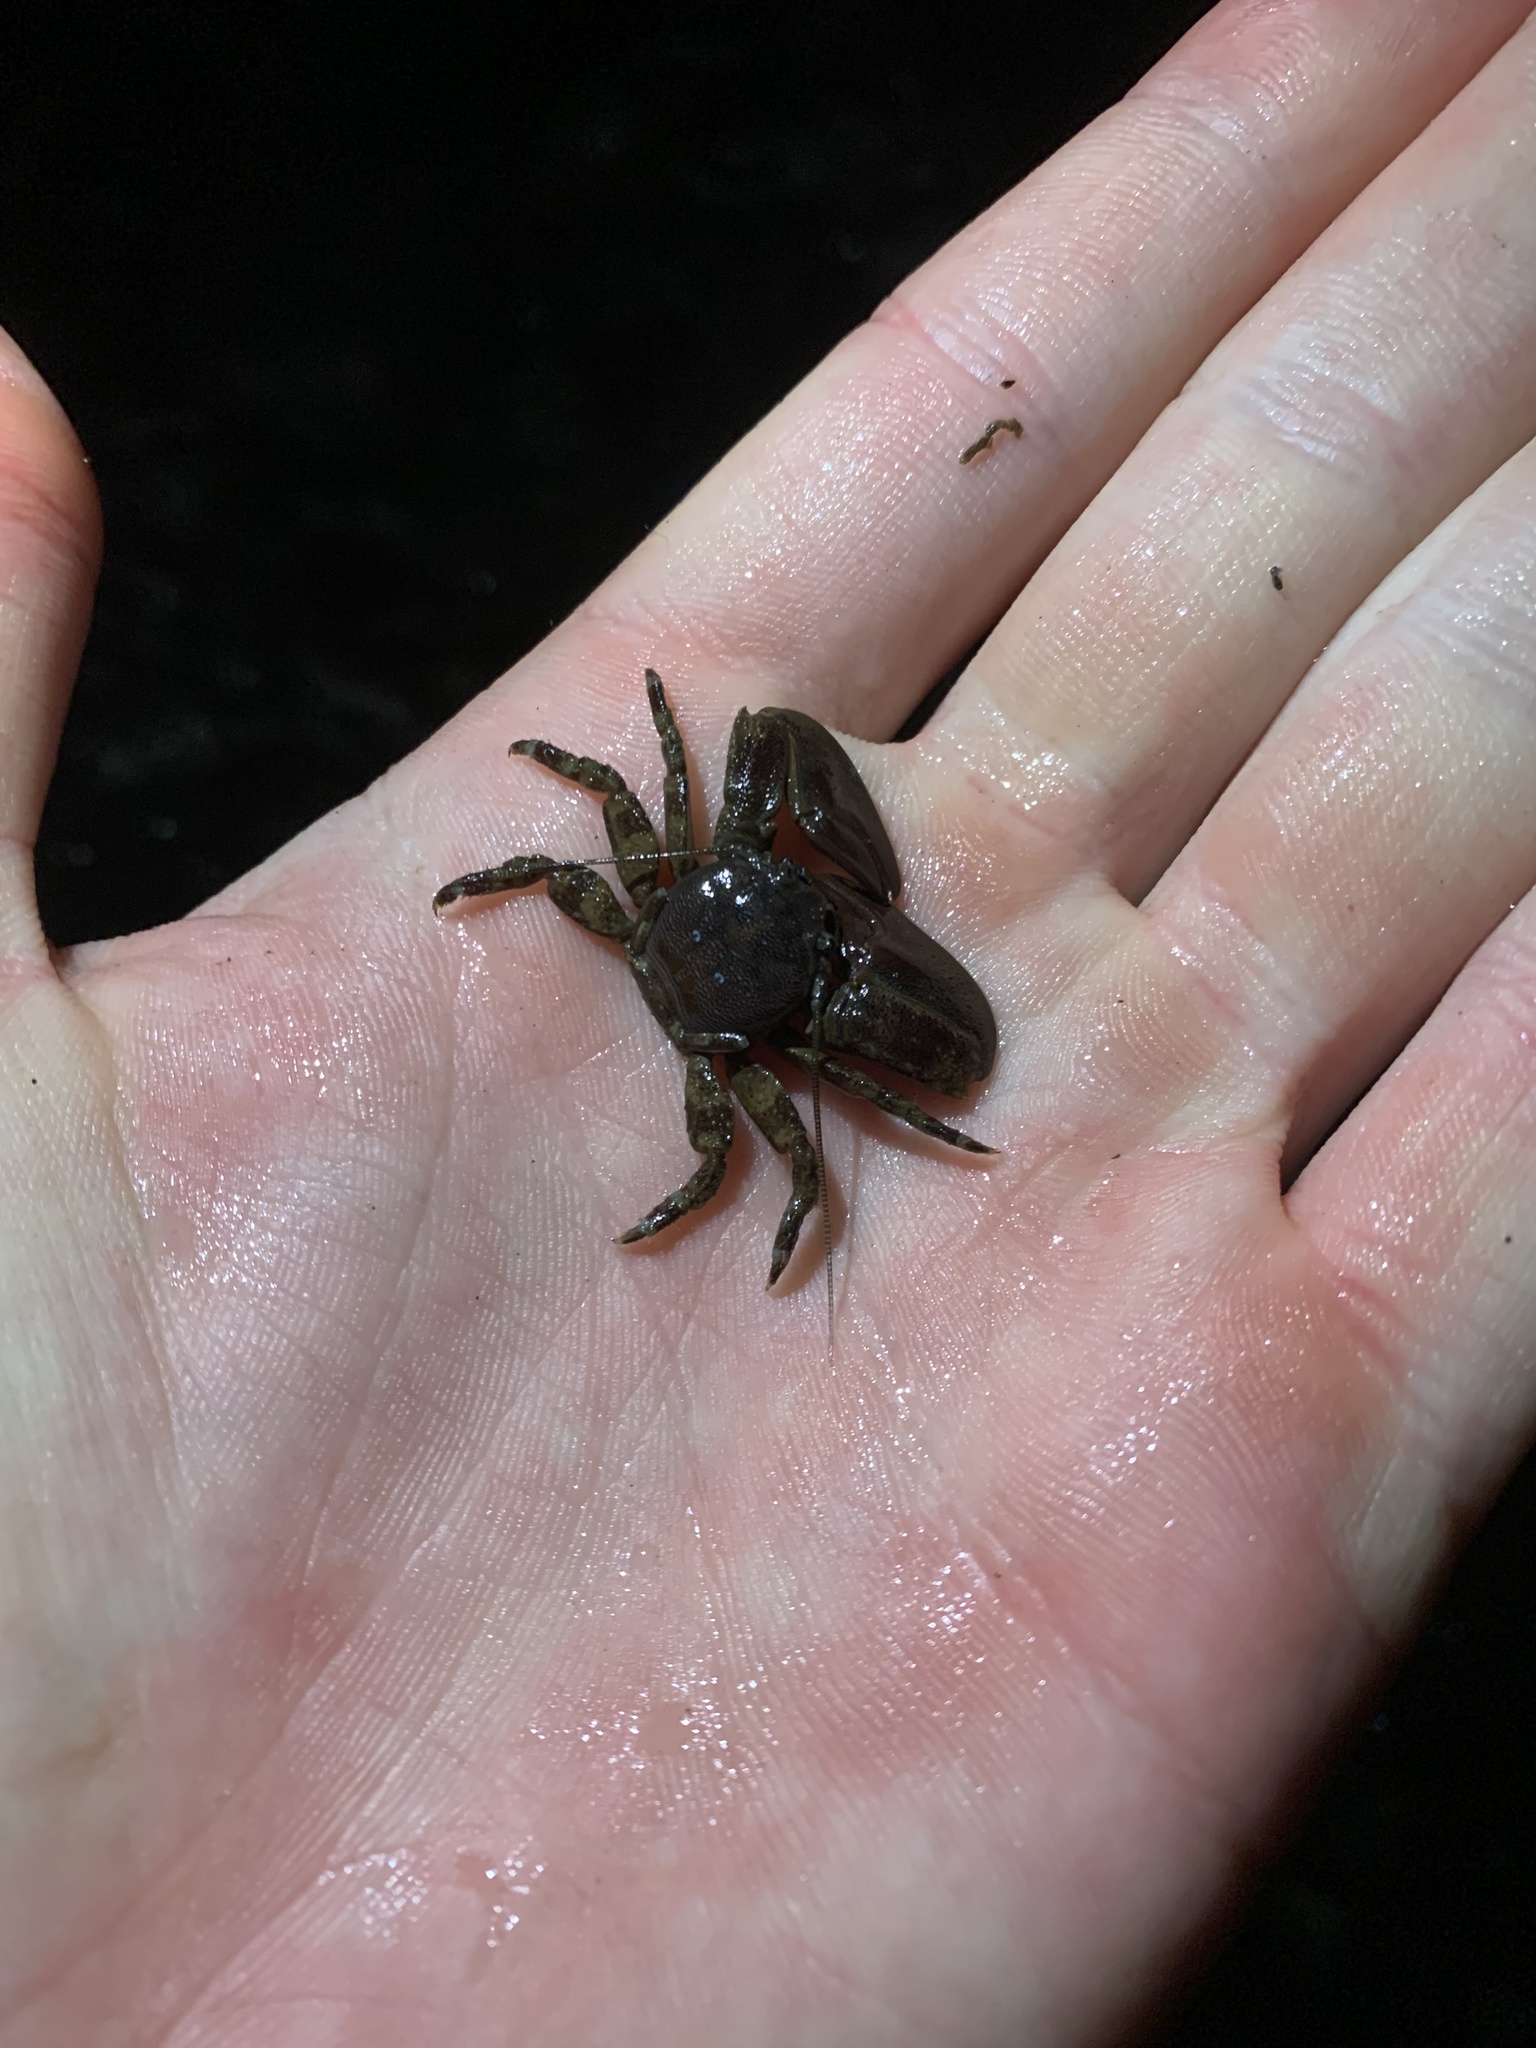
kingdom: Animalia
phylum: Arthropoda
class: Malacostraca
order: Decapoda
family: Porcellanidae
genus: Petrolisthes
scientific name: Petrolisthes eriomerus
